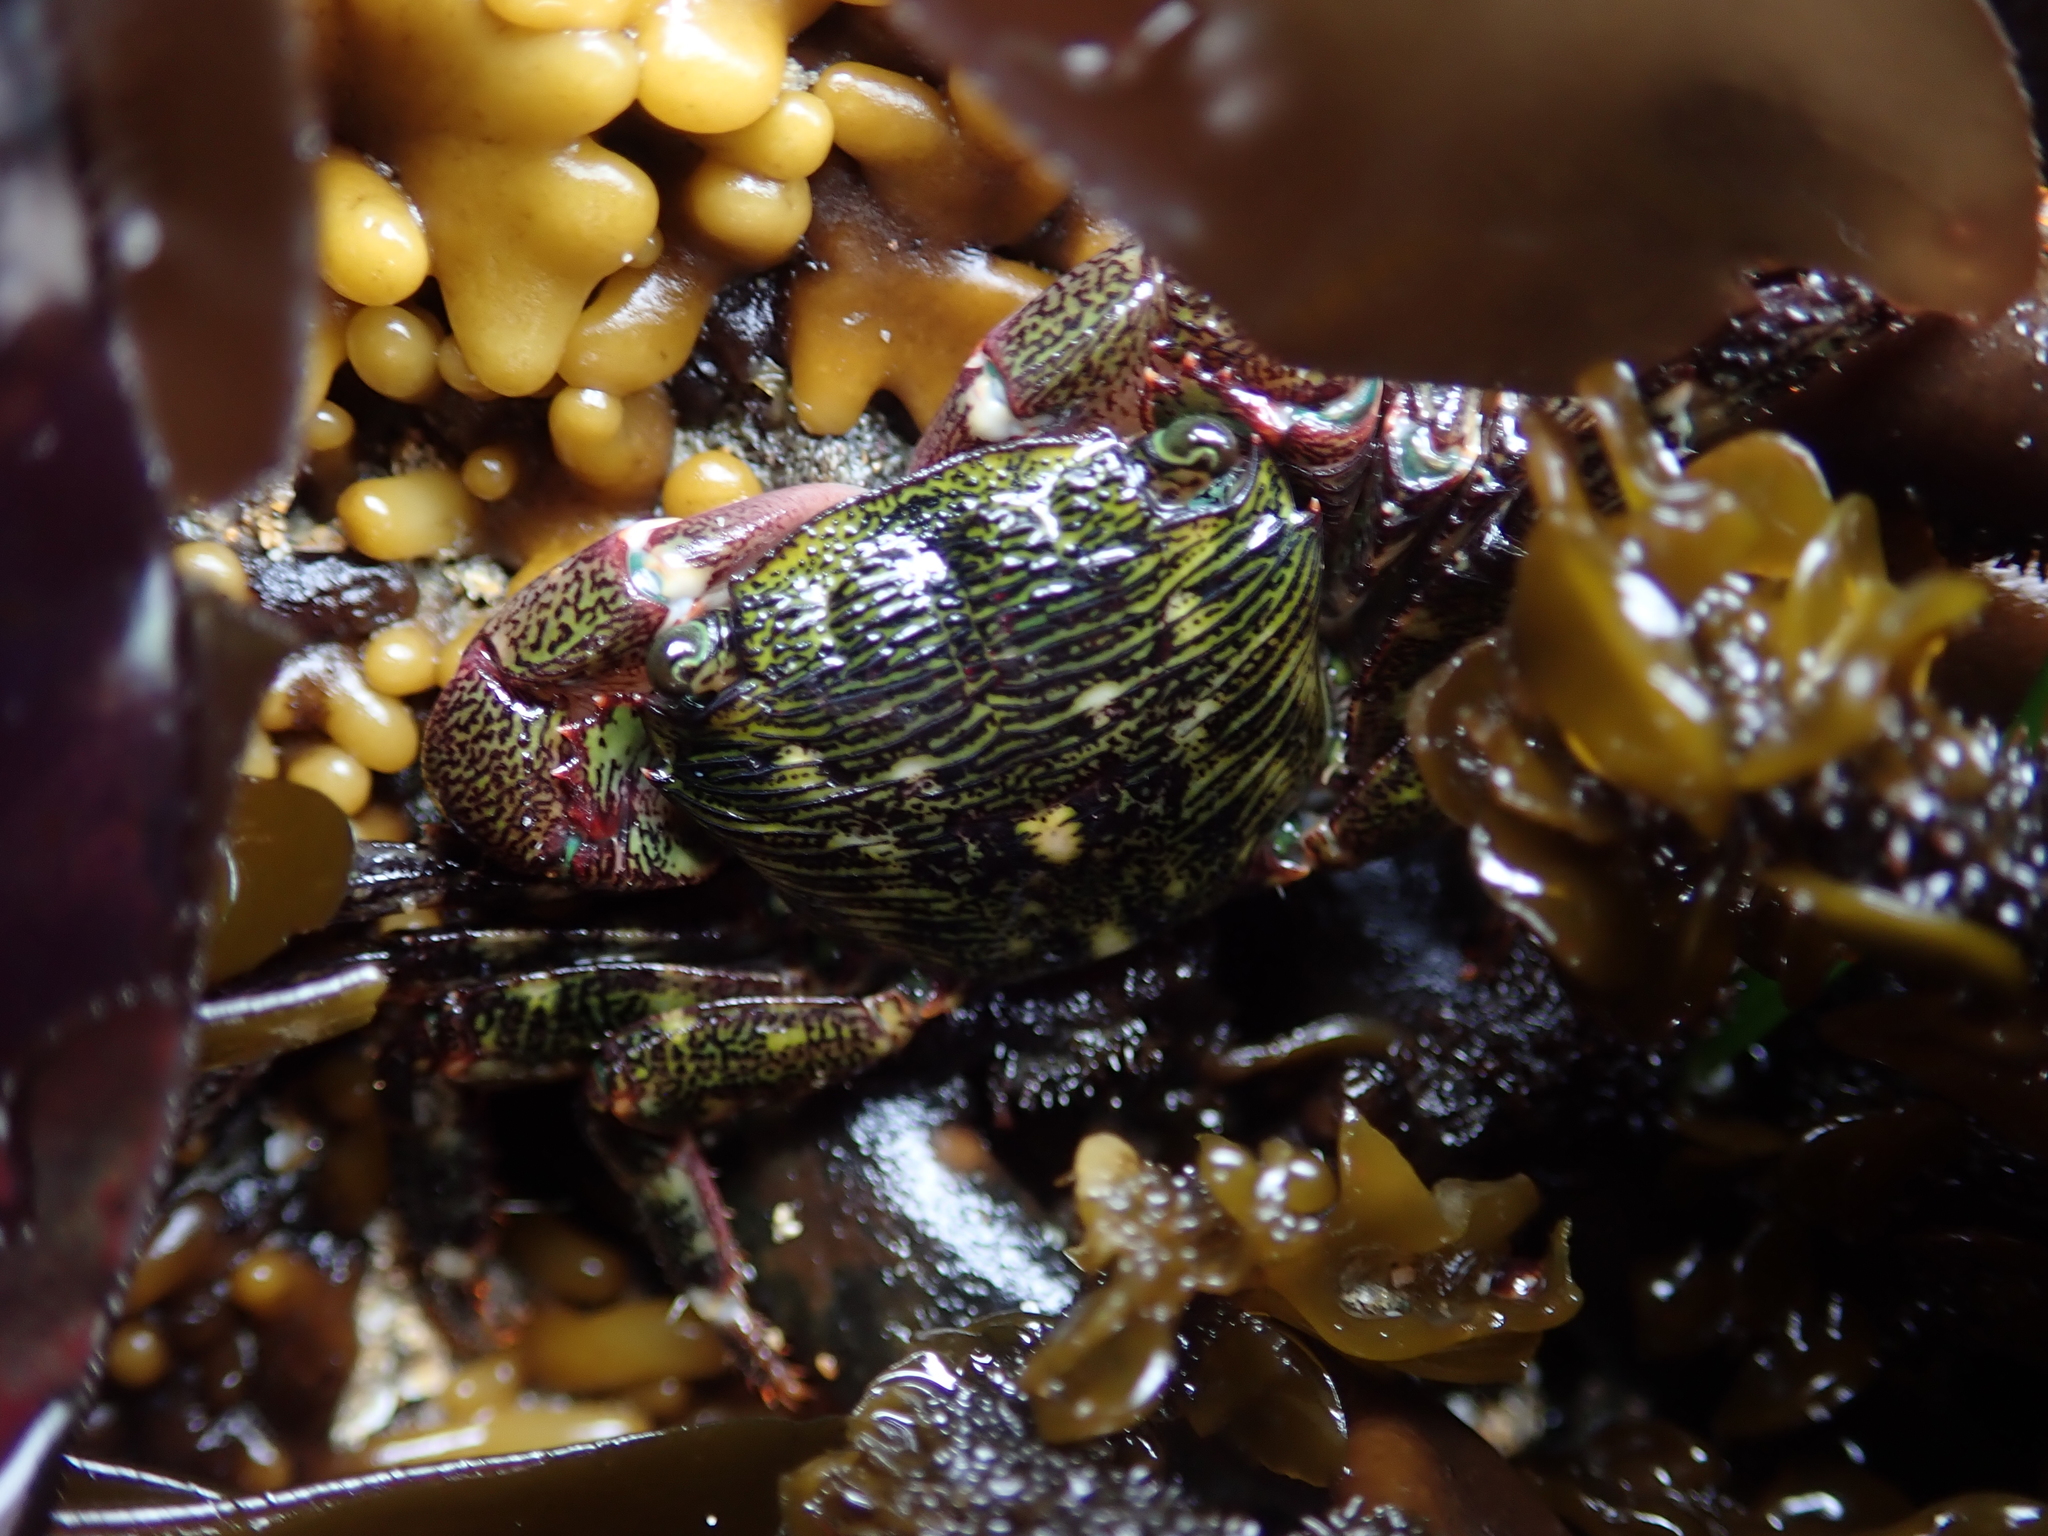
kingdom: Animalia
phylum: Arthropoda
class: Malacostraca
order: Decapoda
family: Grapsidae
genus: Pachygrapsus
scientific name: Pachygrapsus crassipes
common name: Striped shore crab
